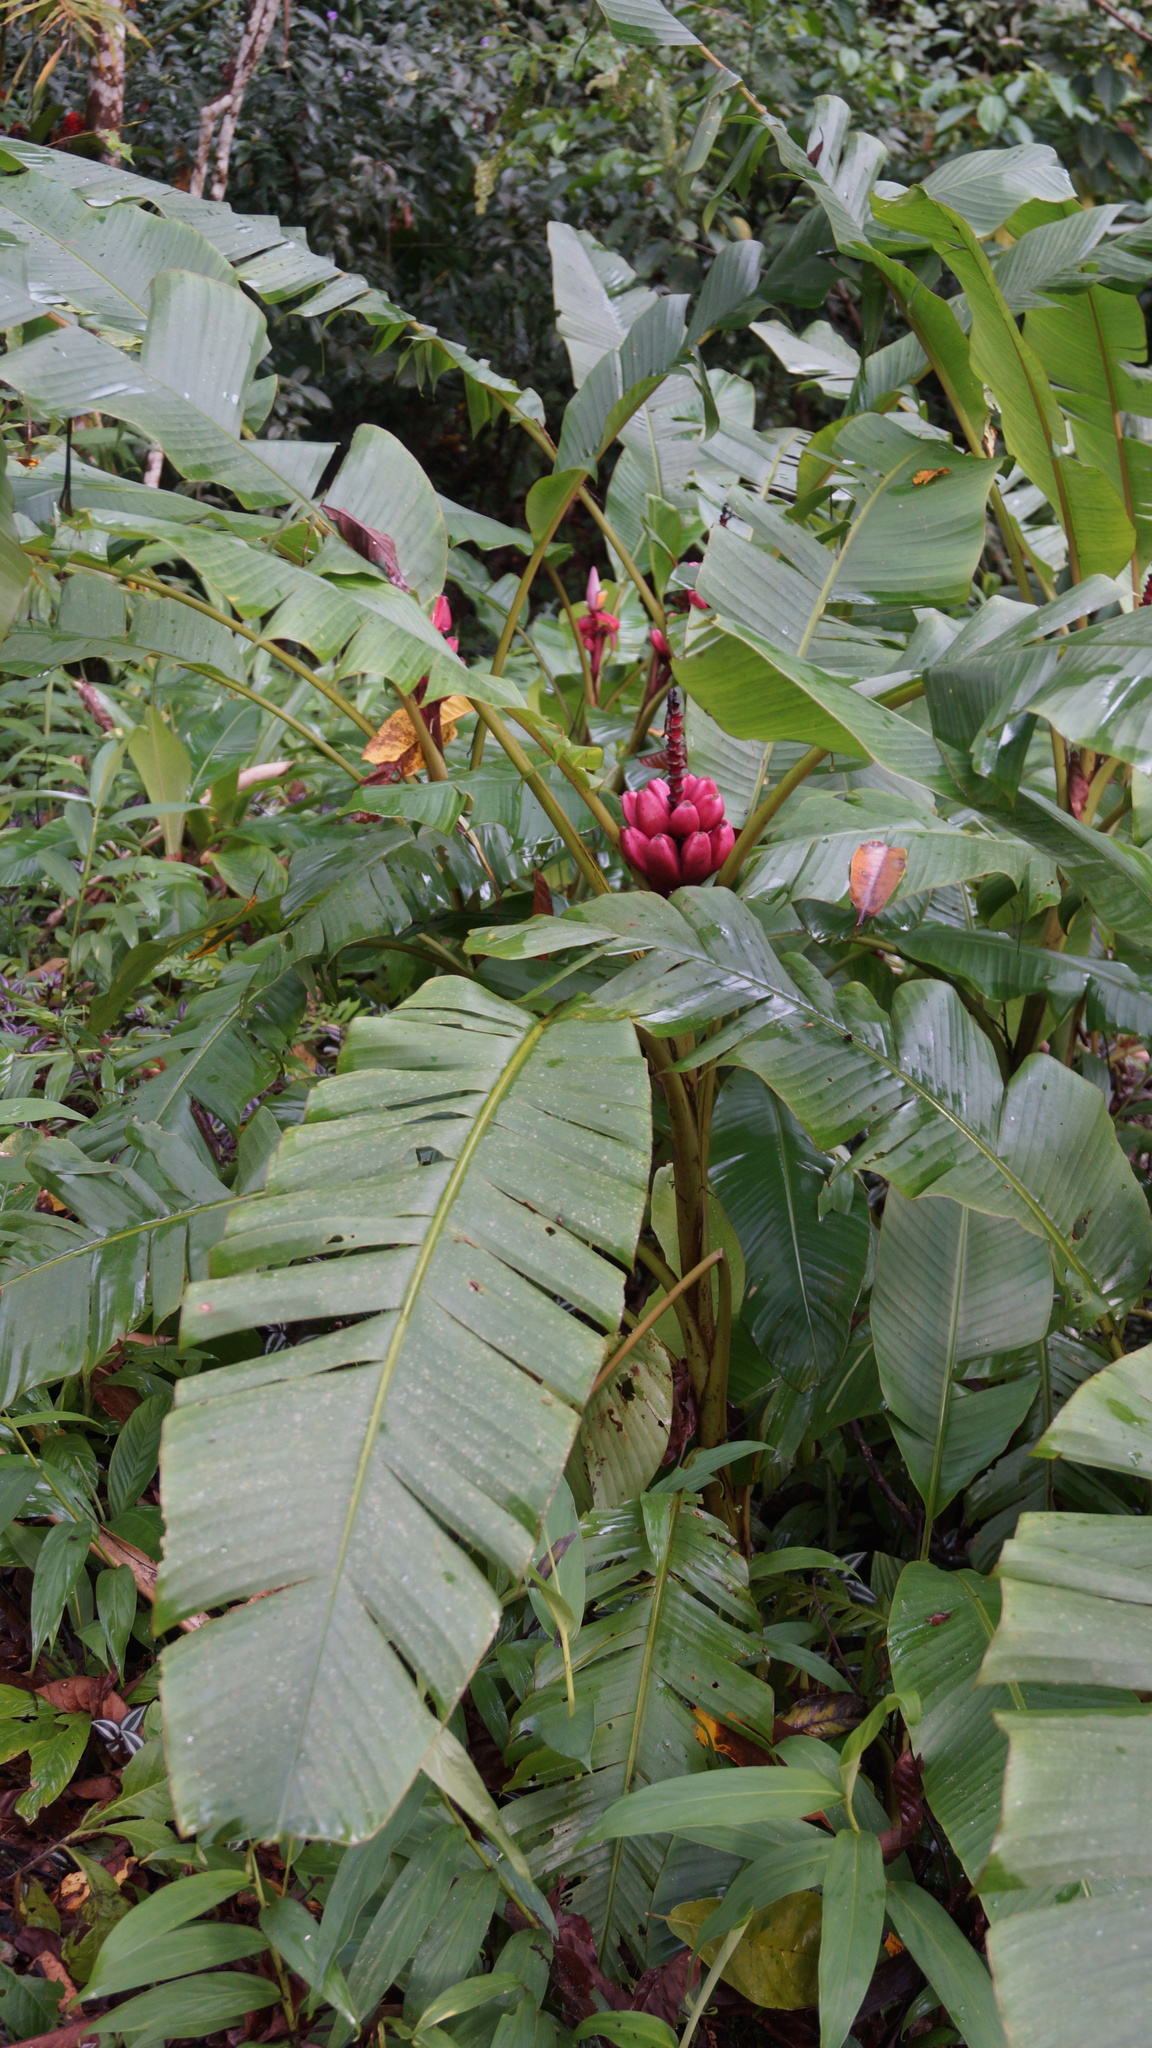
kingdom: Plantae
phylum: Tracheophyta
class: Liliopsida
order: Zingiberales
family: Musaceae
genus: Musa
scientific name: Musa velutina
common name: Pink velvet banana
